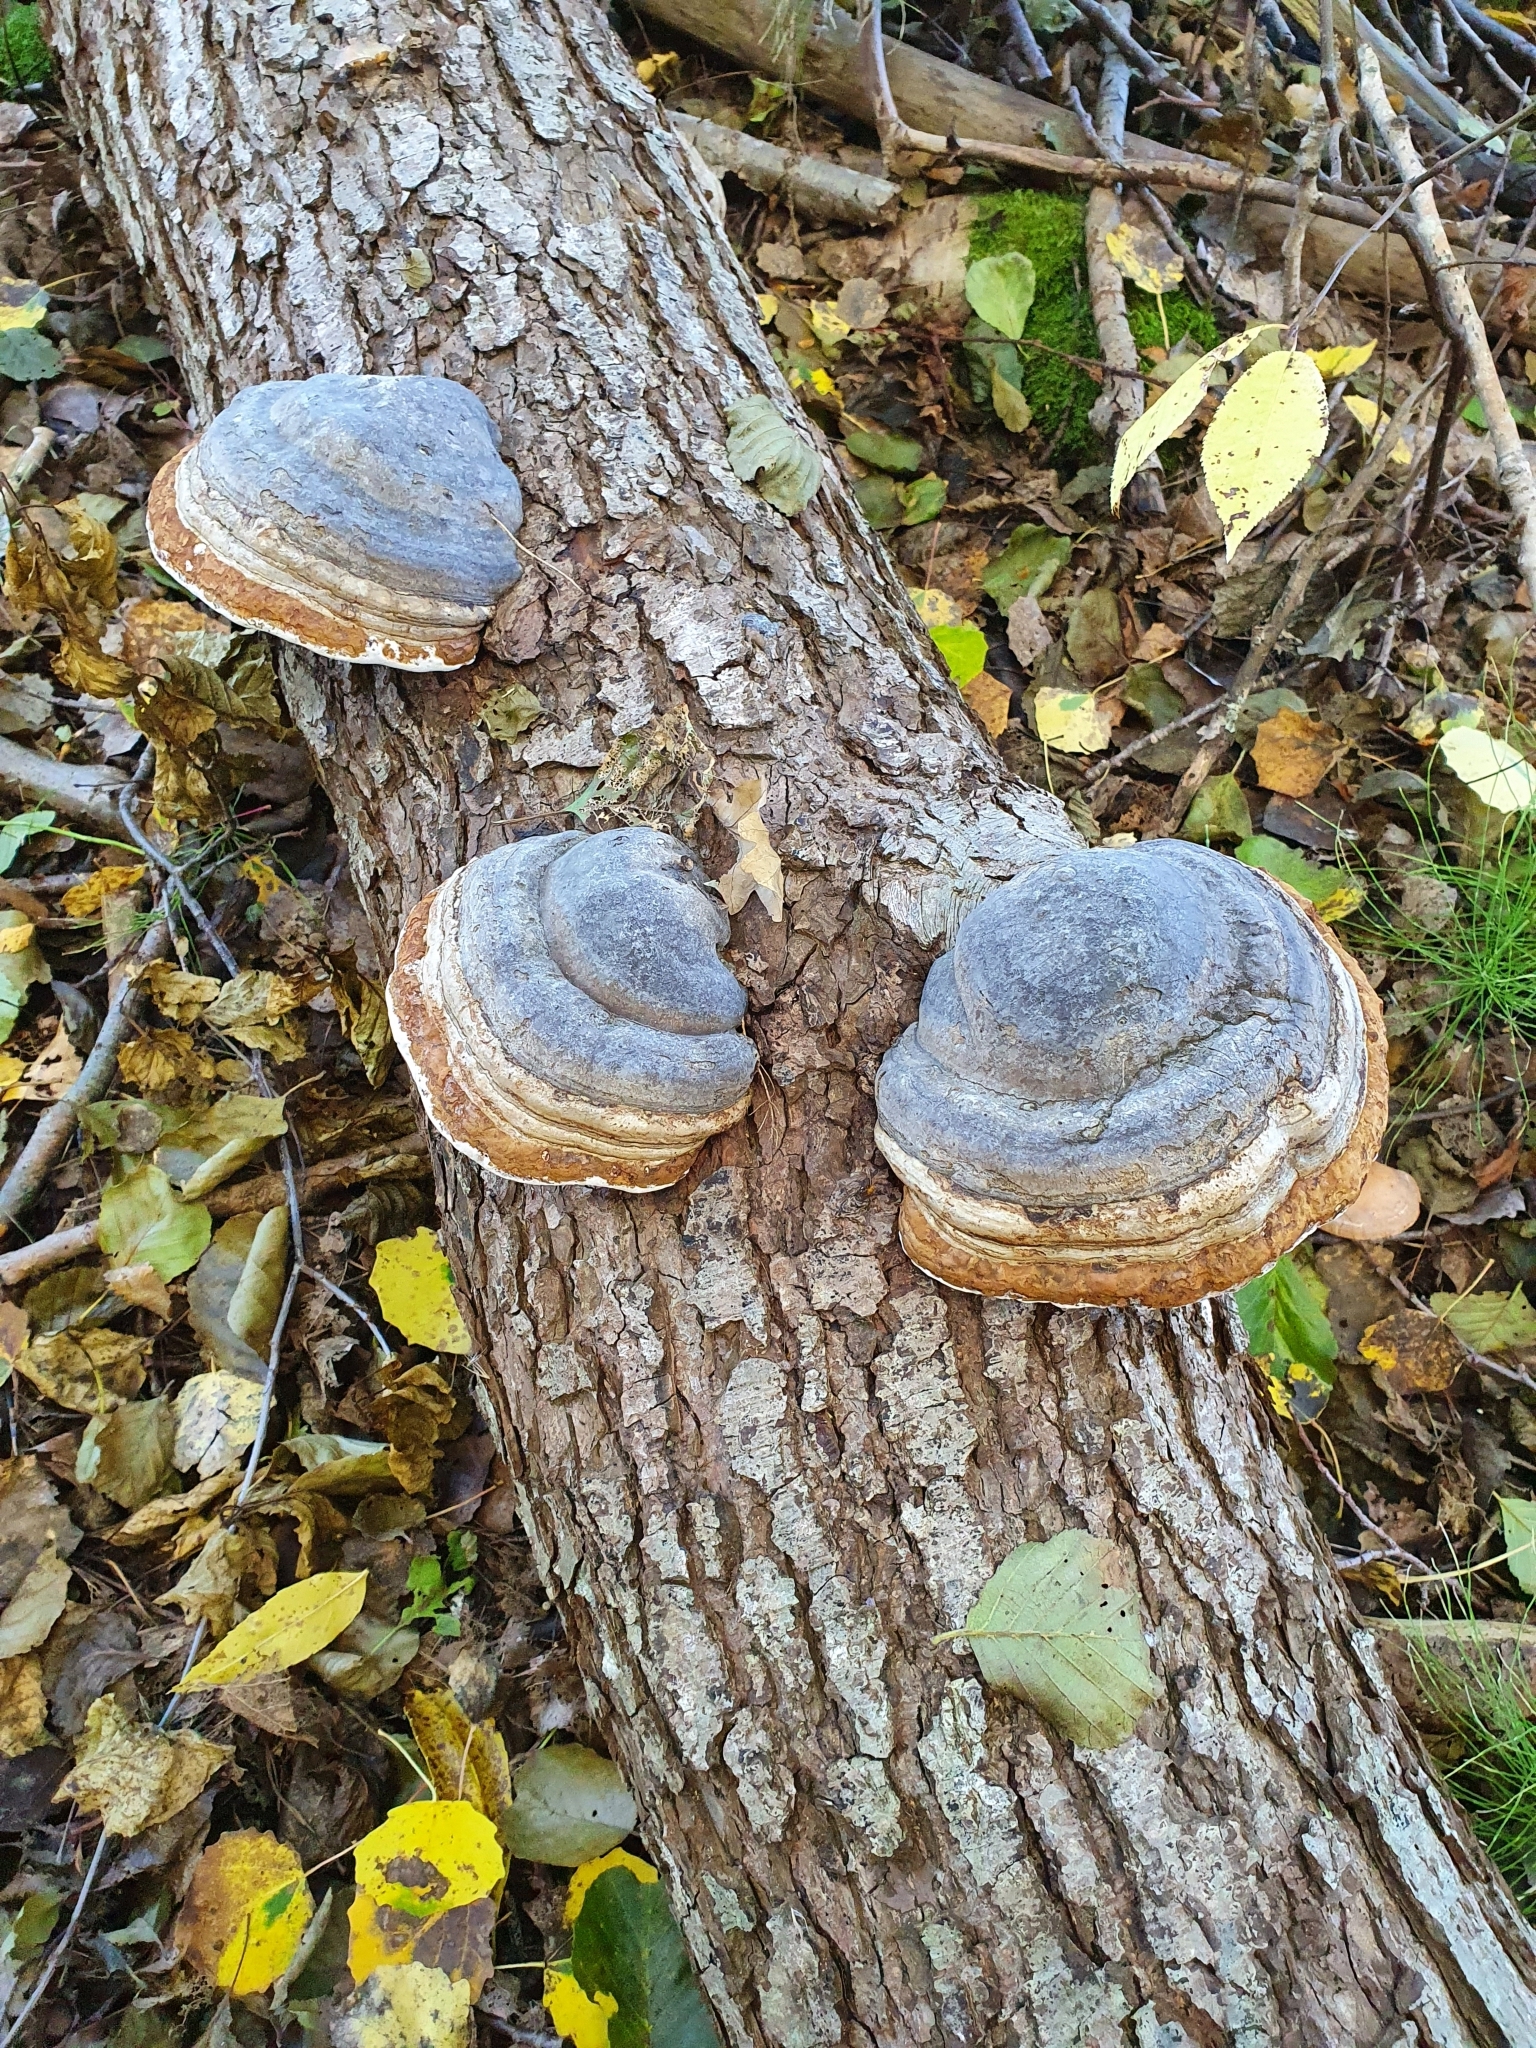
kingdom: Fungi
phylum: Basidiomycota
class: Agaricomycetes
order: Polyporales
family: Polyporaceae
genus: Fomes
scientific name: Fomes fomentarius
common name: Hoof fungus
